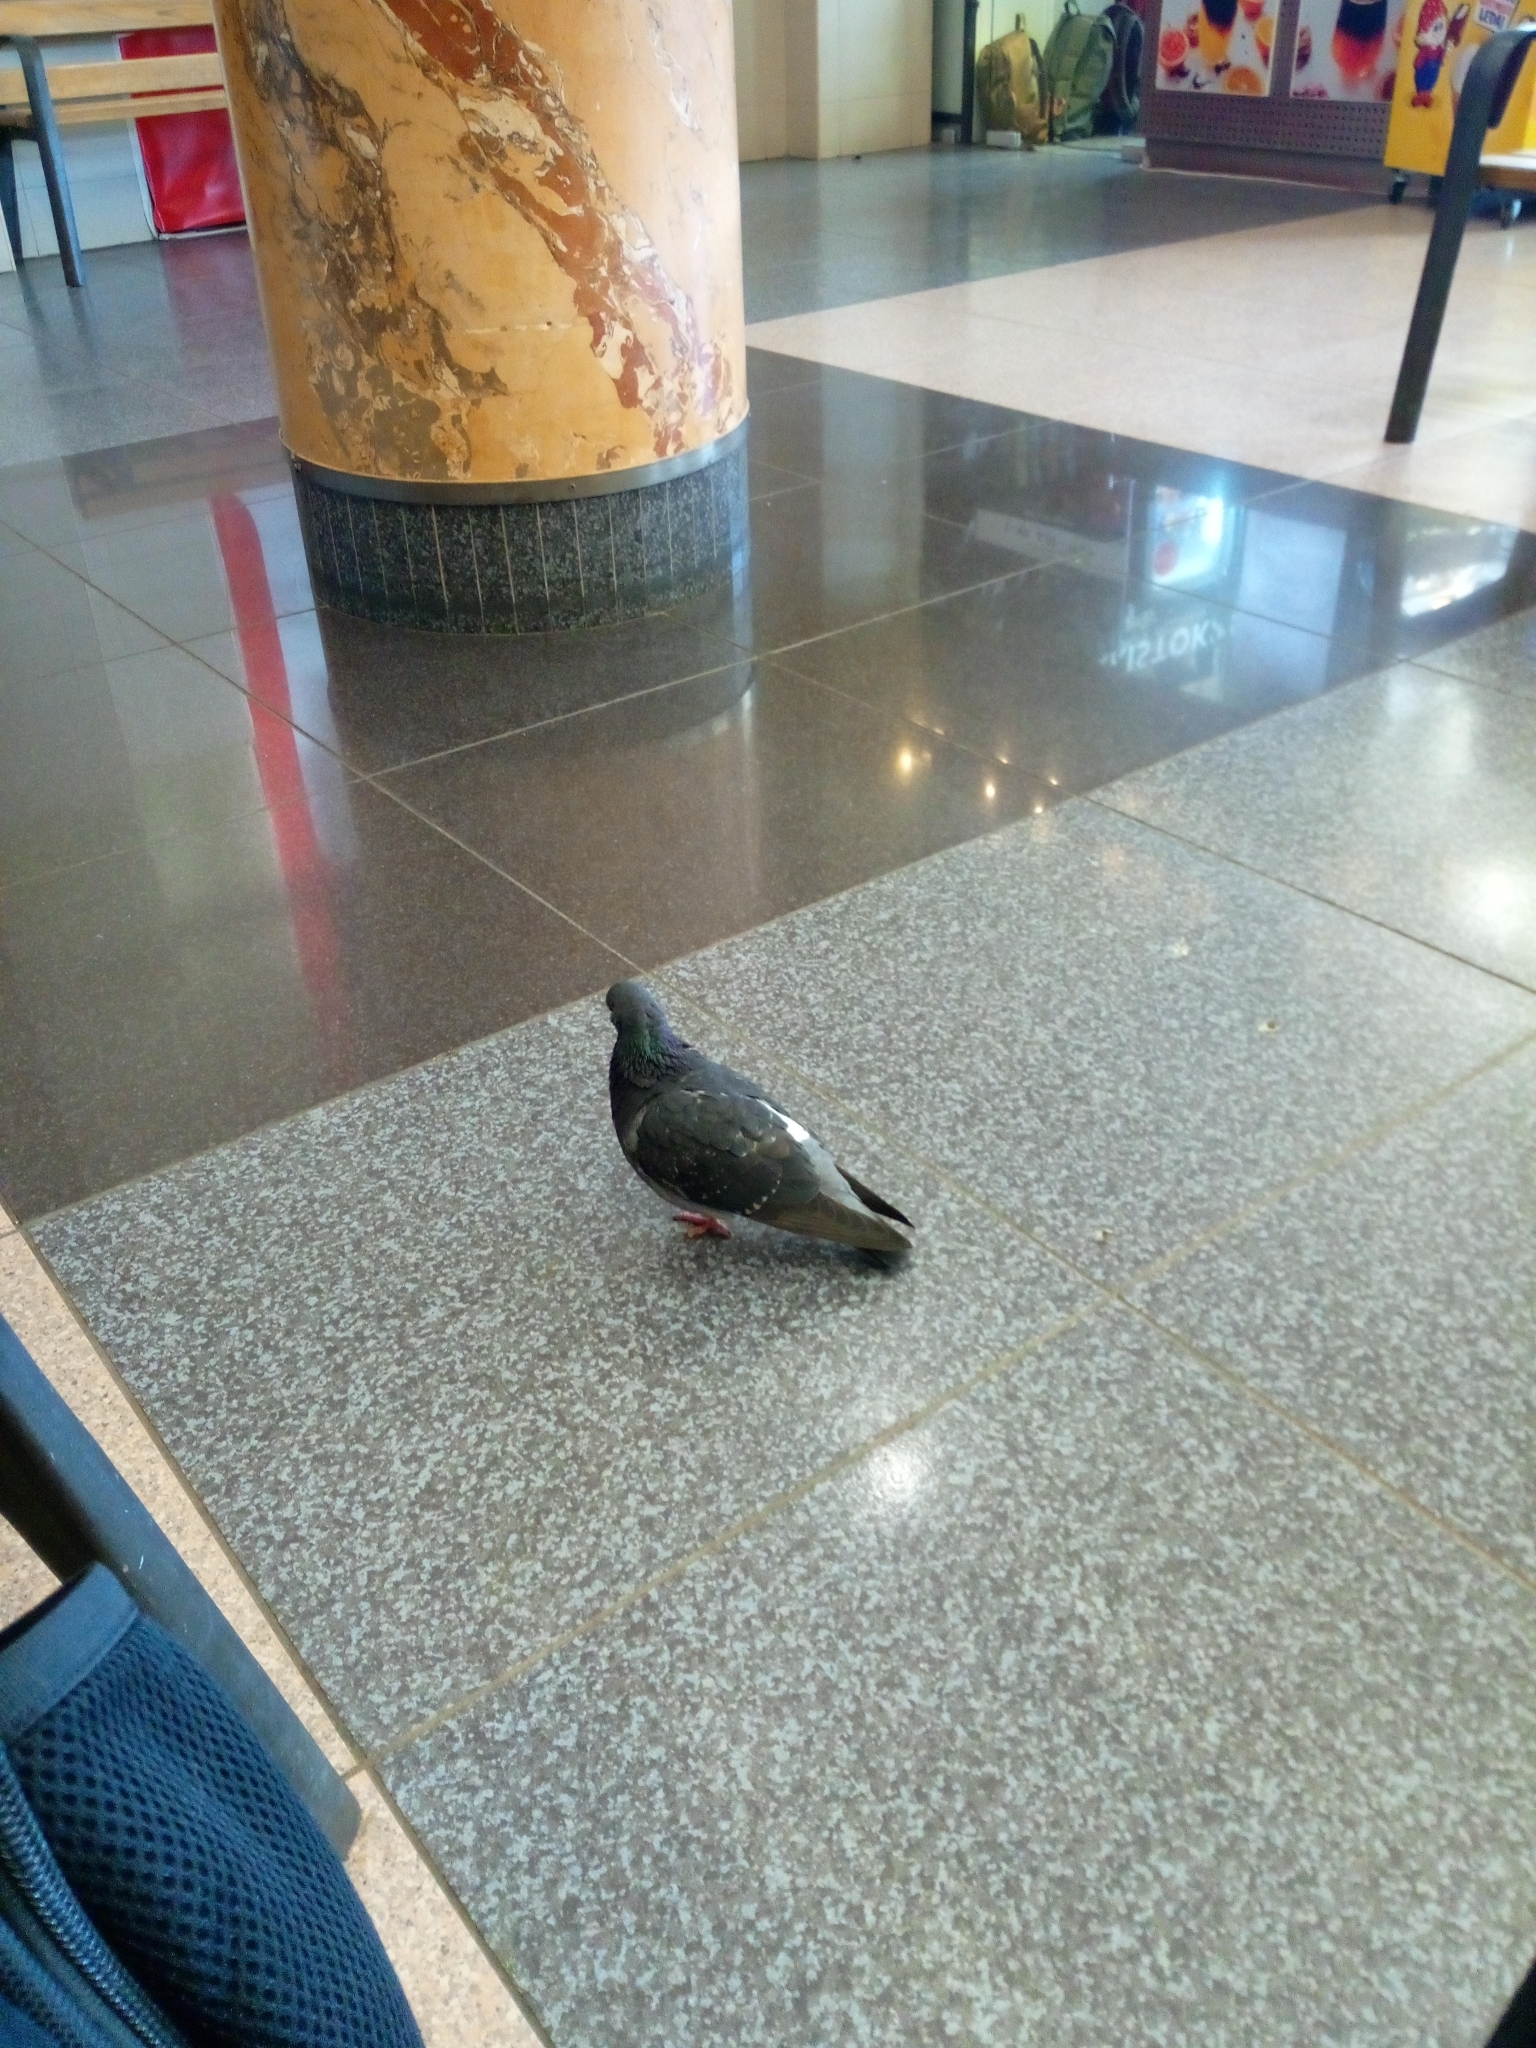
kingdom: Animalia
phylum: Chordata
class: Aves
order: Columbiformes
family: Columbidae
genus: Columba
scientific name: Columba livia
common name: Rock pigeon
